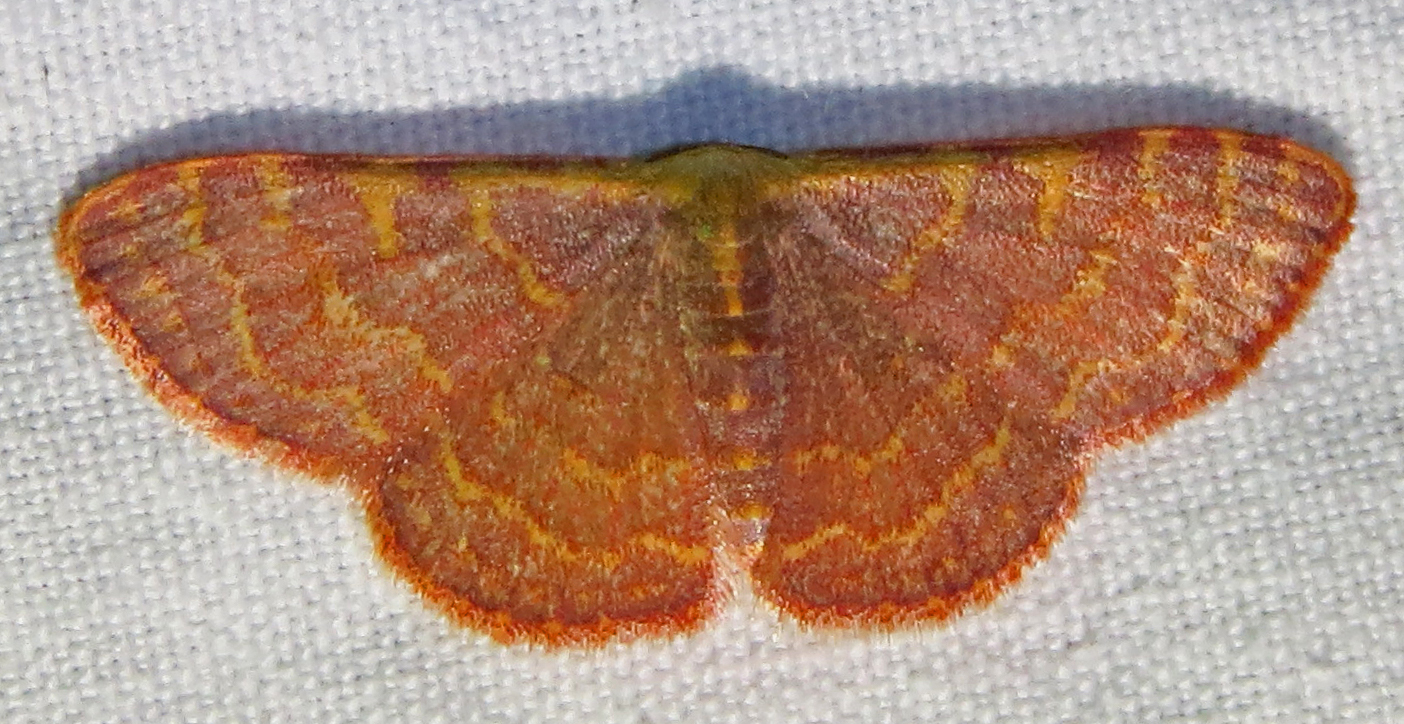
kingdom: Animalia
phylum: Arthropoda
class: Insecta
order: Lepidoptera
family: Geometridae
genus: Leptostales
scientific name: Leptostales pannaria
